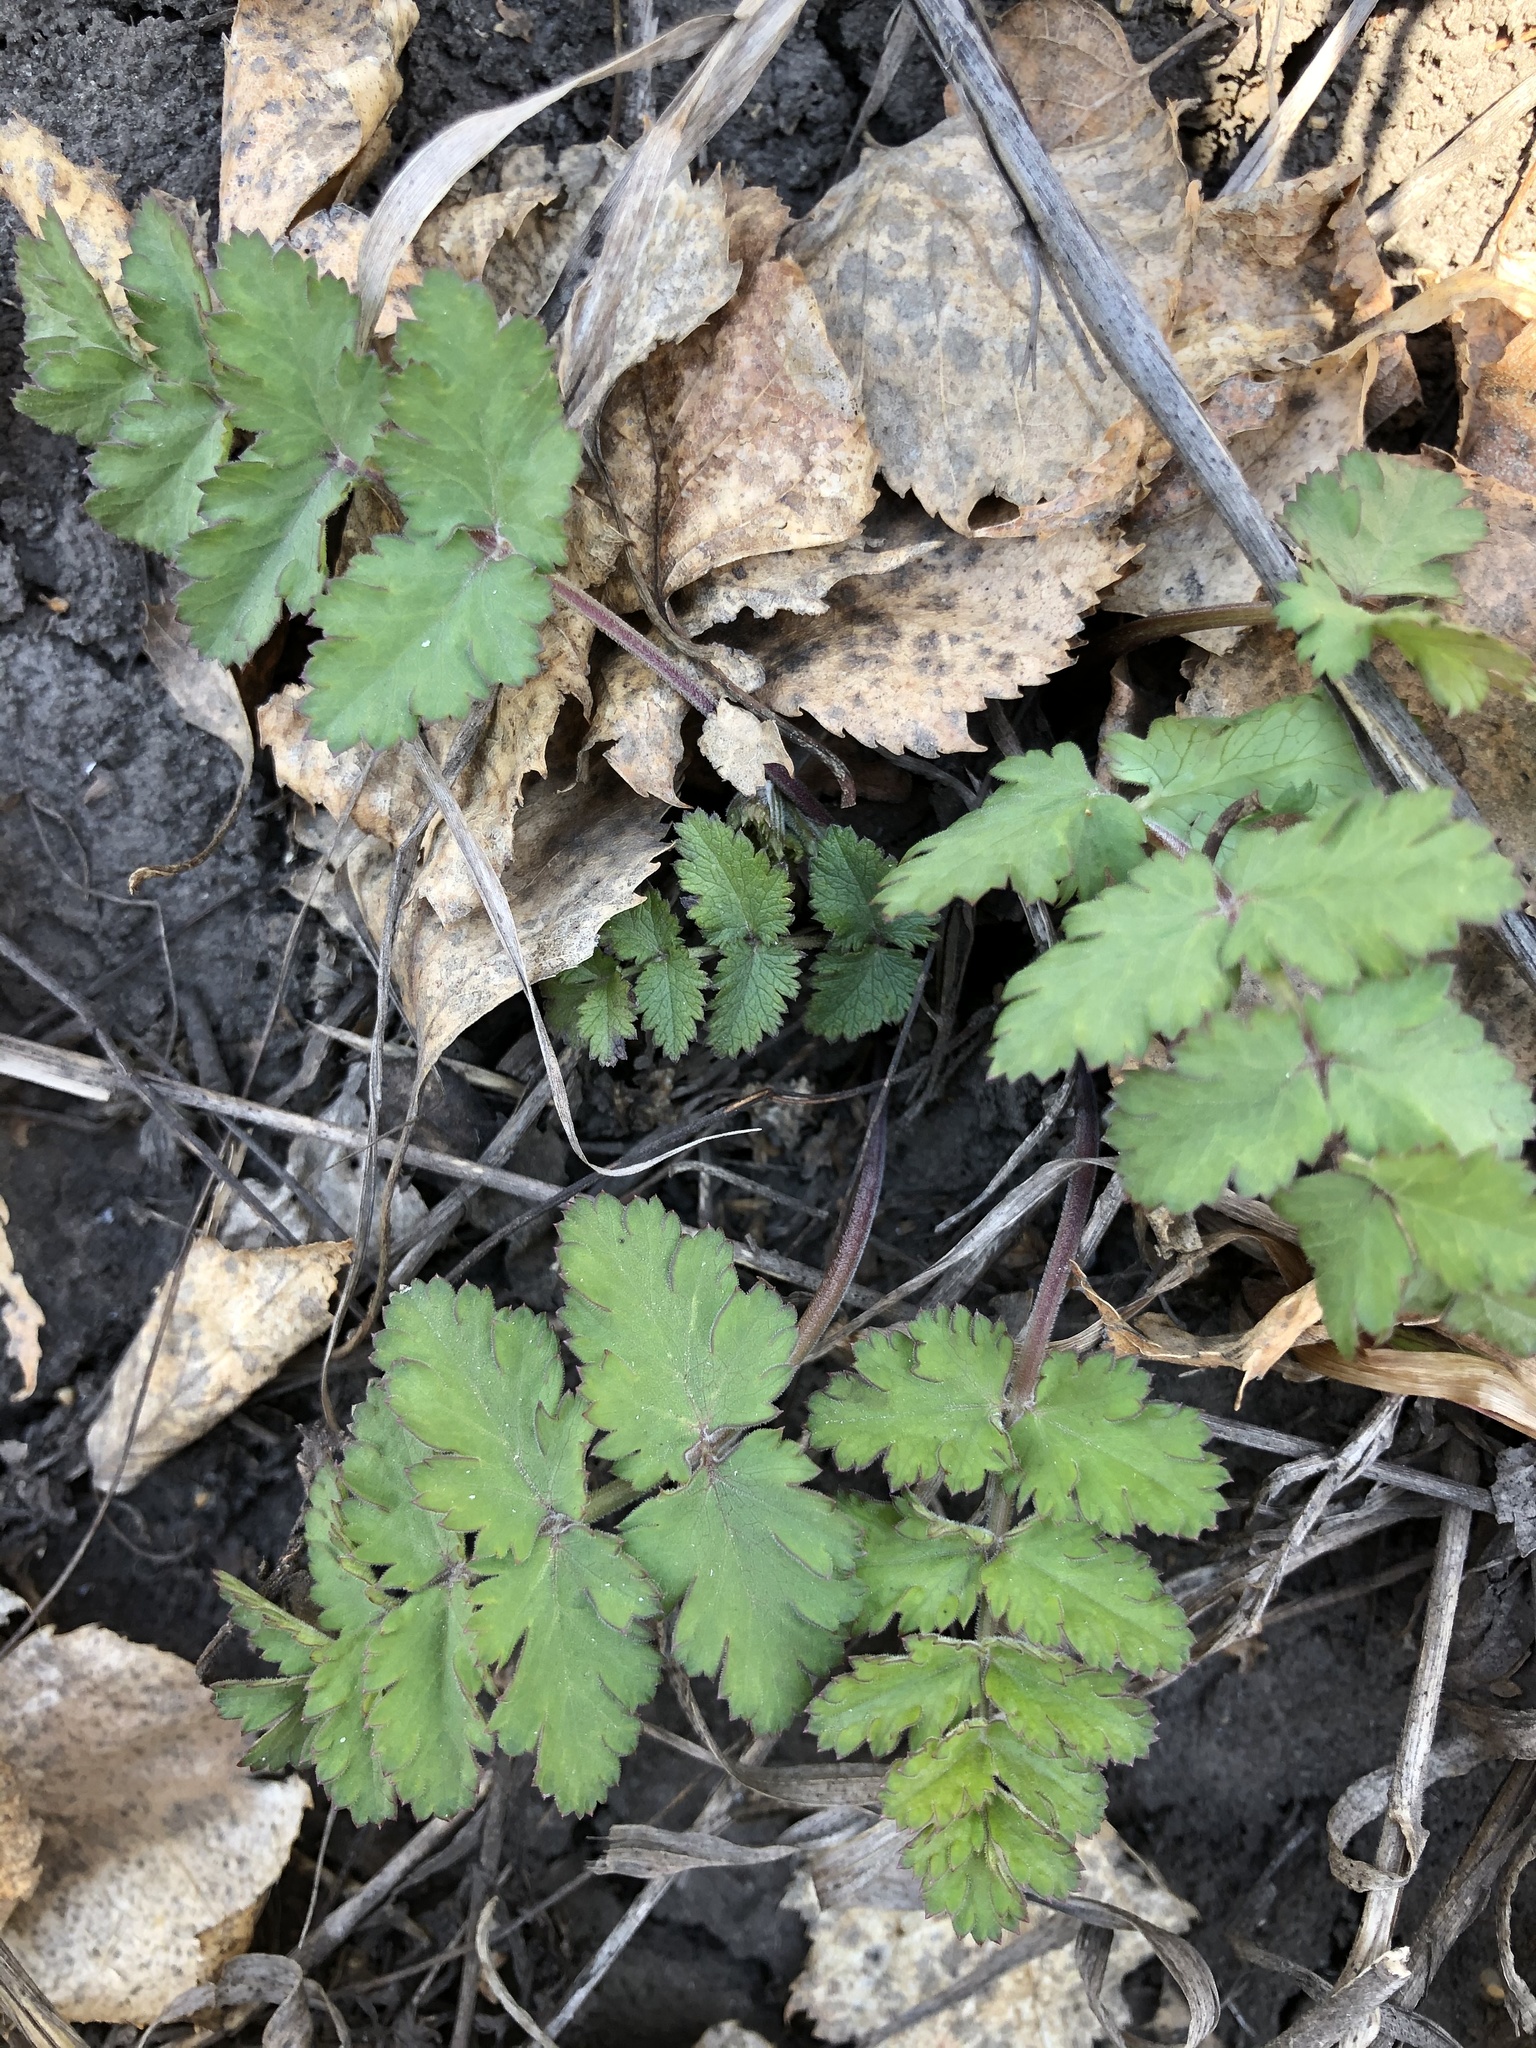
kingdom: Plantae
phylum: Tracheophyta
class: Magnoliopsida
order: Apiales
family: Apiaceae
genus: Pimpinella
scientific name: Pimpinella saxifraga
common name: Burnet-saxifrage
